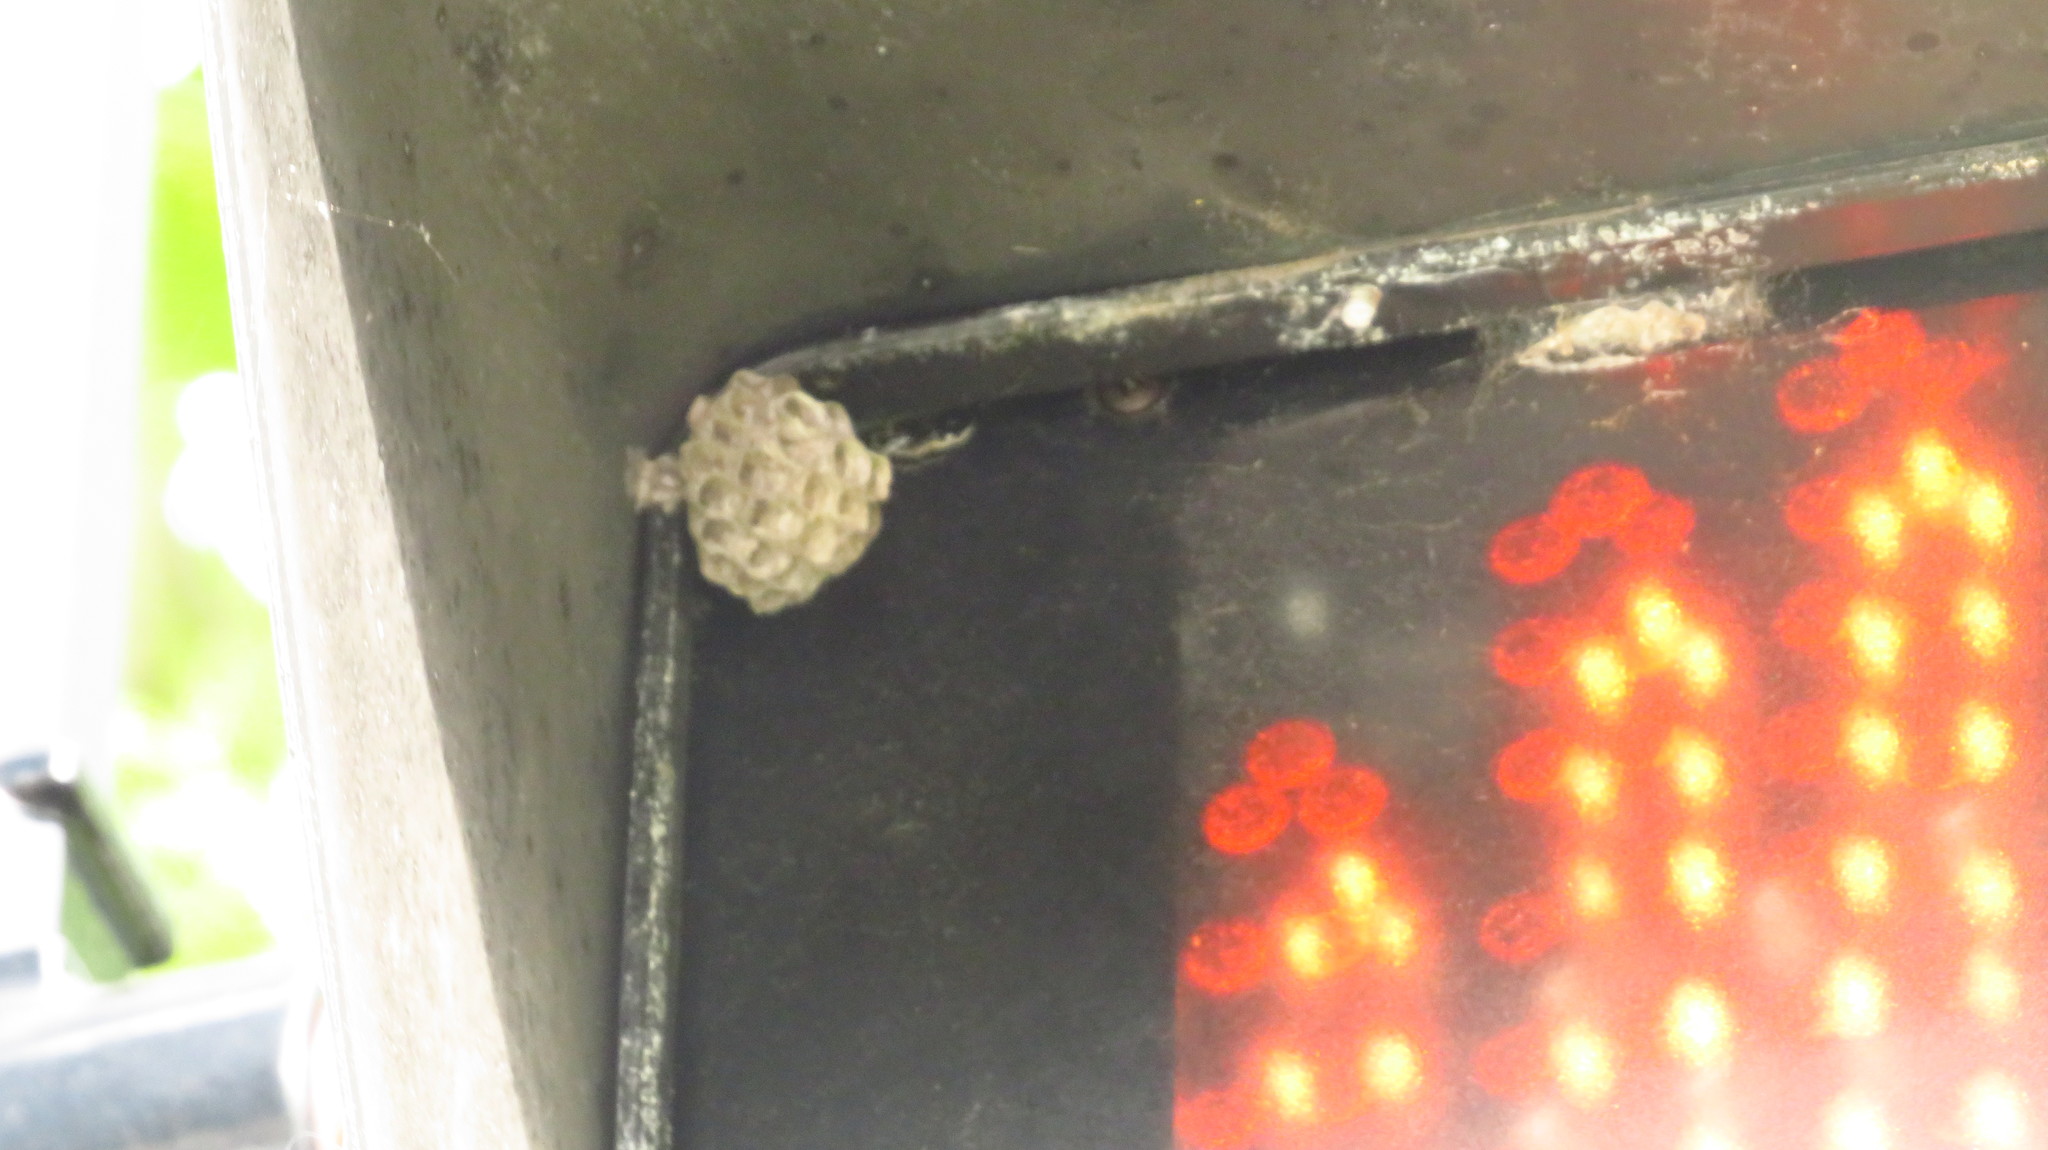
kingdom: Animalia
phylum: Arthropoda
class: Insecta
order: Hymenoptera
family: Eumenidae
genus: Polistes
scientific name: Polistes
